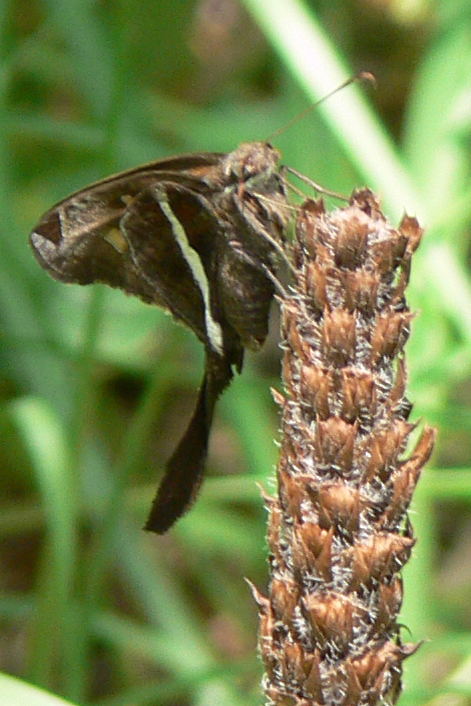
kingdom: Animalia
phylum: Arthropoda
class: Insecta
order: Lepidoptera
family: Hesperiidae
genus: Chioides
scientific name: Chioides catillus
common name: Silverbanded skipper
